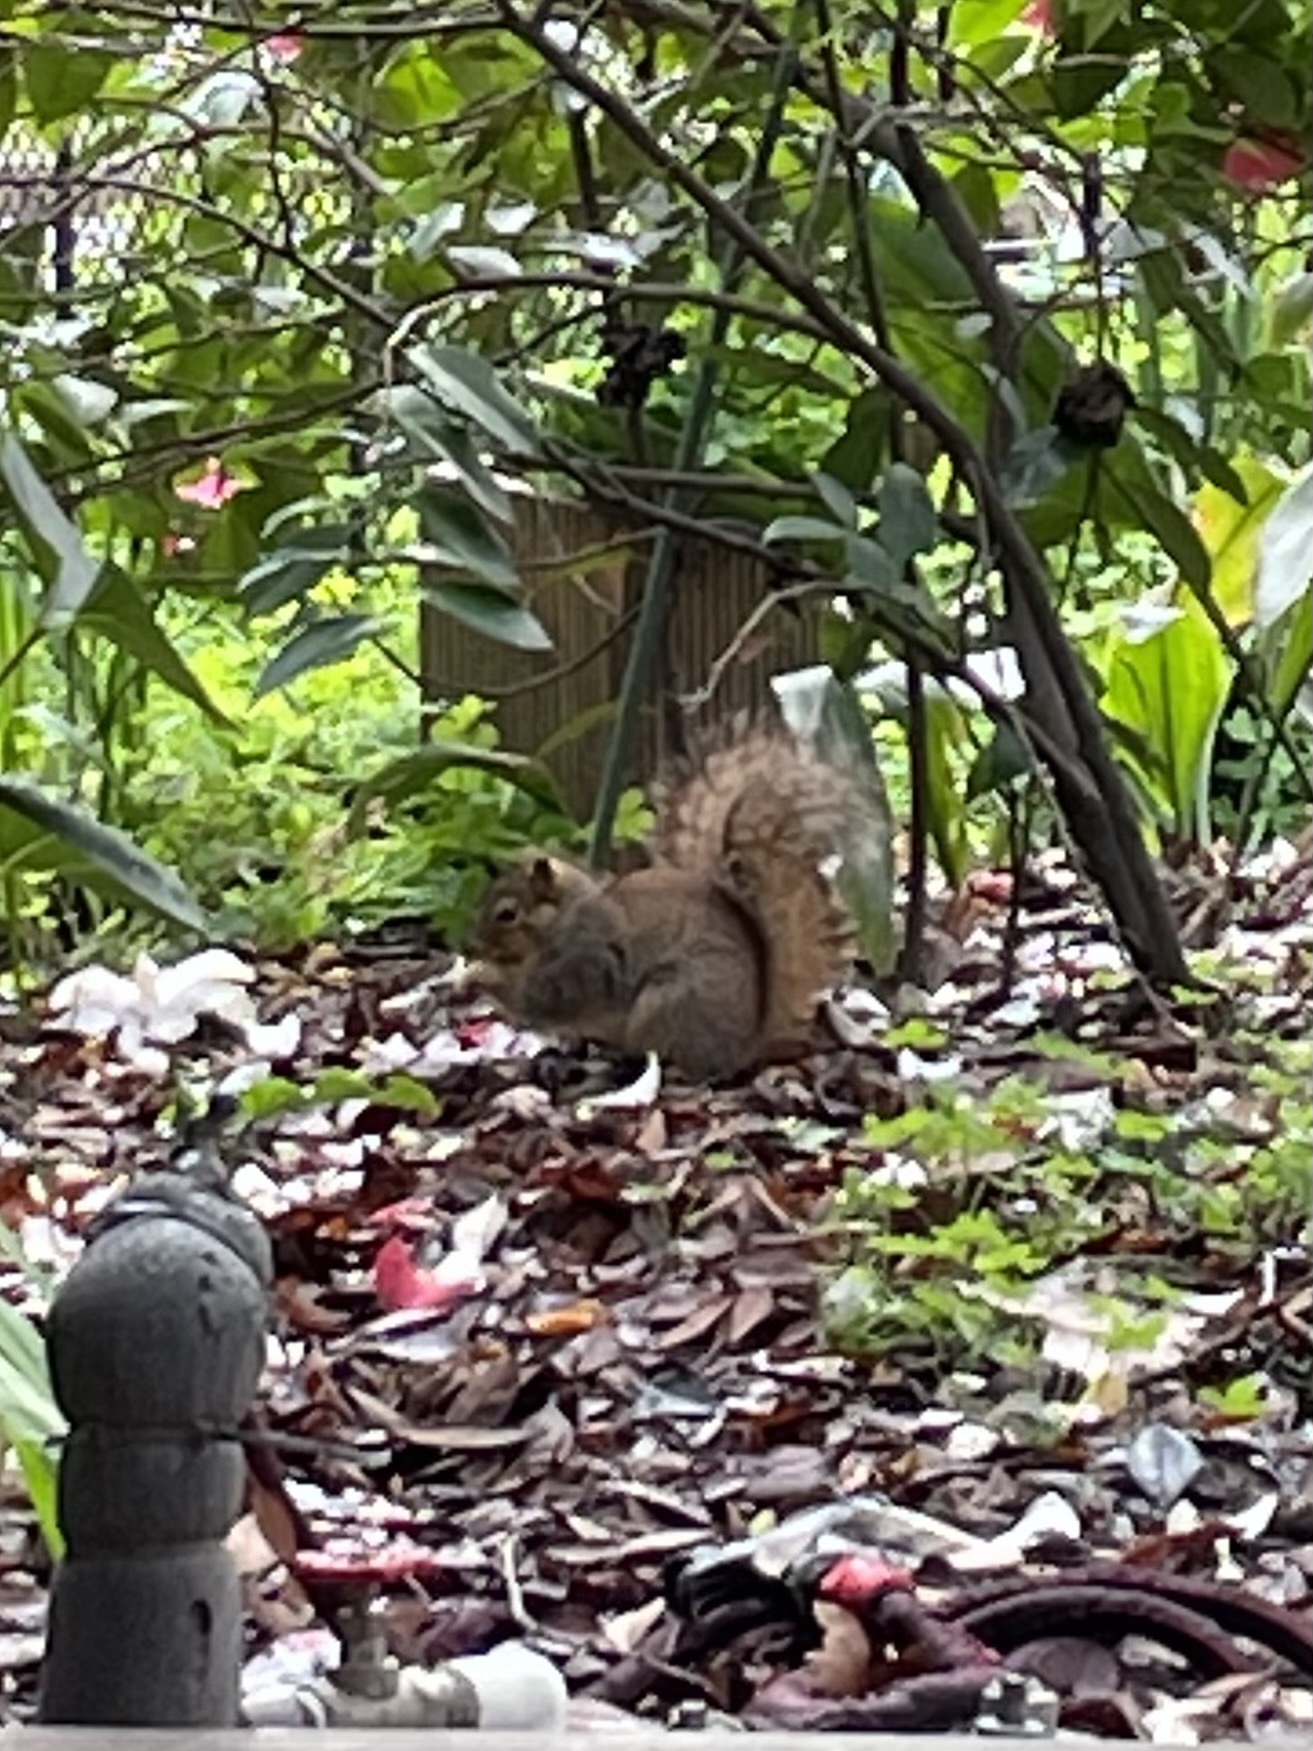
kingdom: Animalia
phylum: Chordata
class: Mammalia
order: Rodentia
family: Sciuridae
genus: Sciurus
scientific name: Sciurus niger
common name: Fox squirrel
